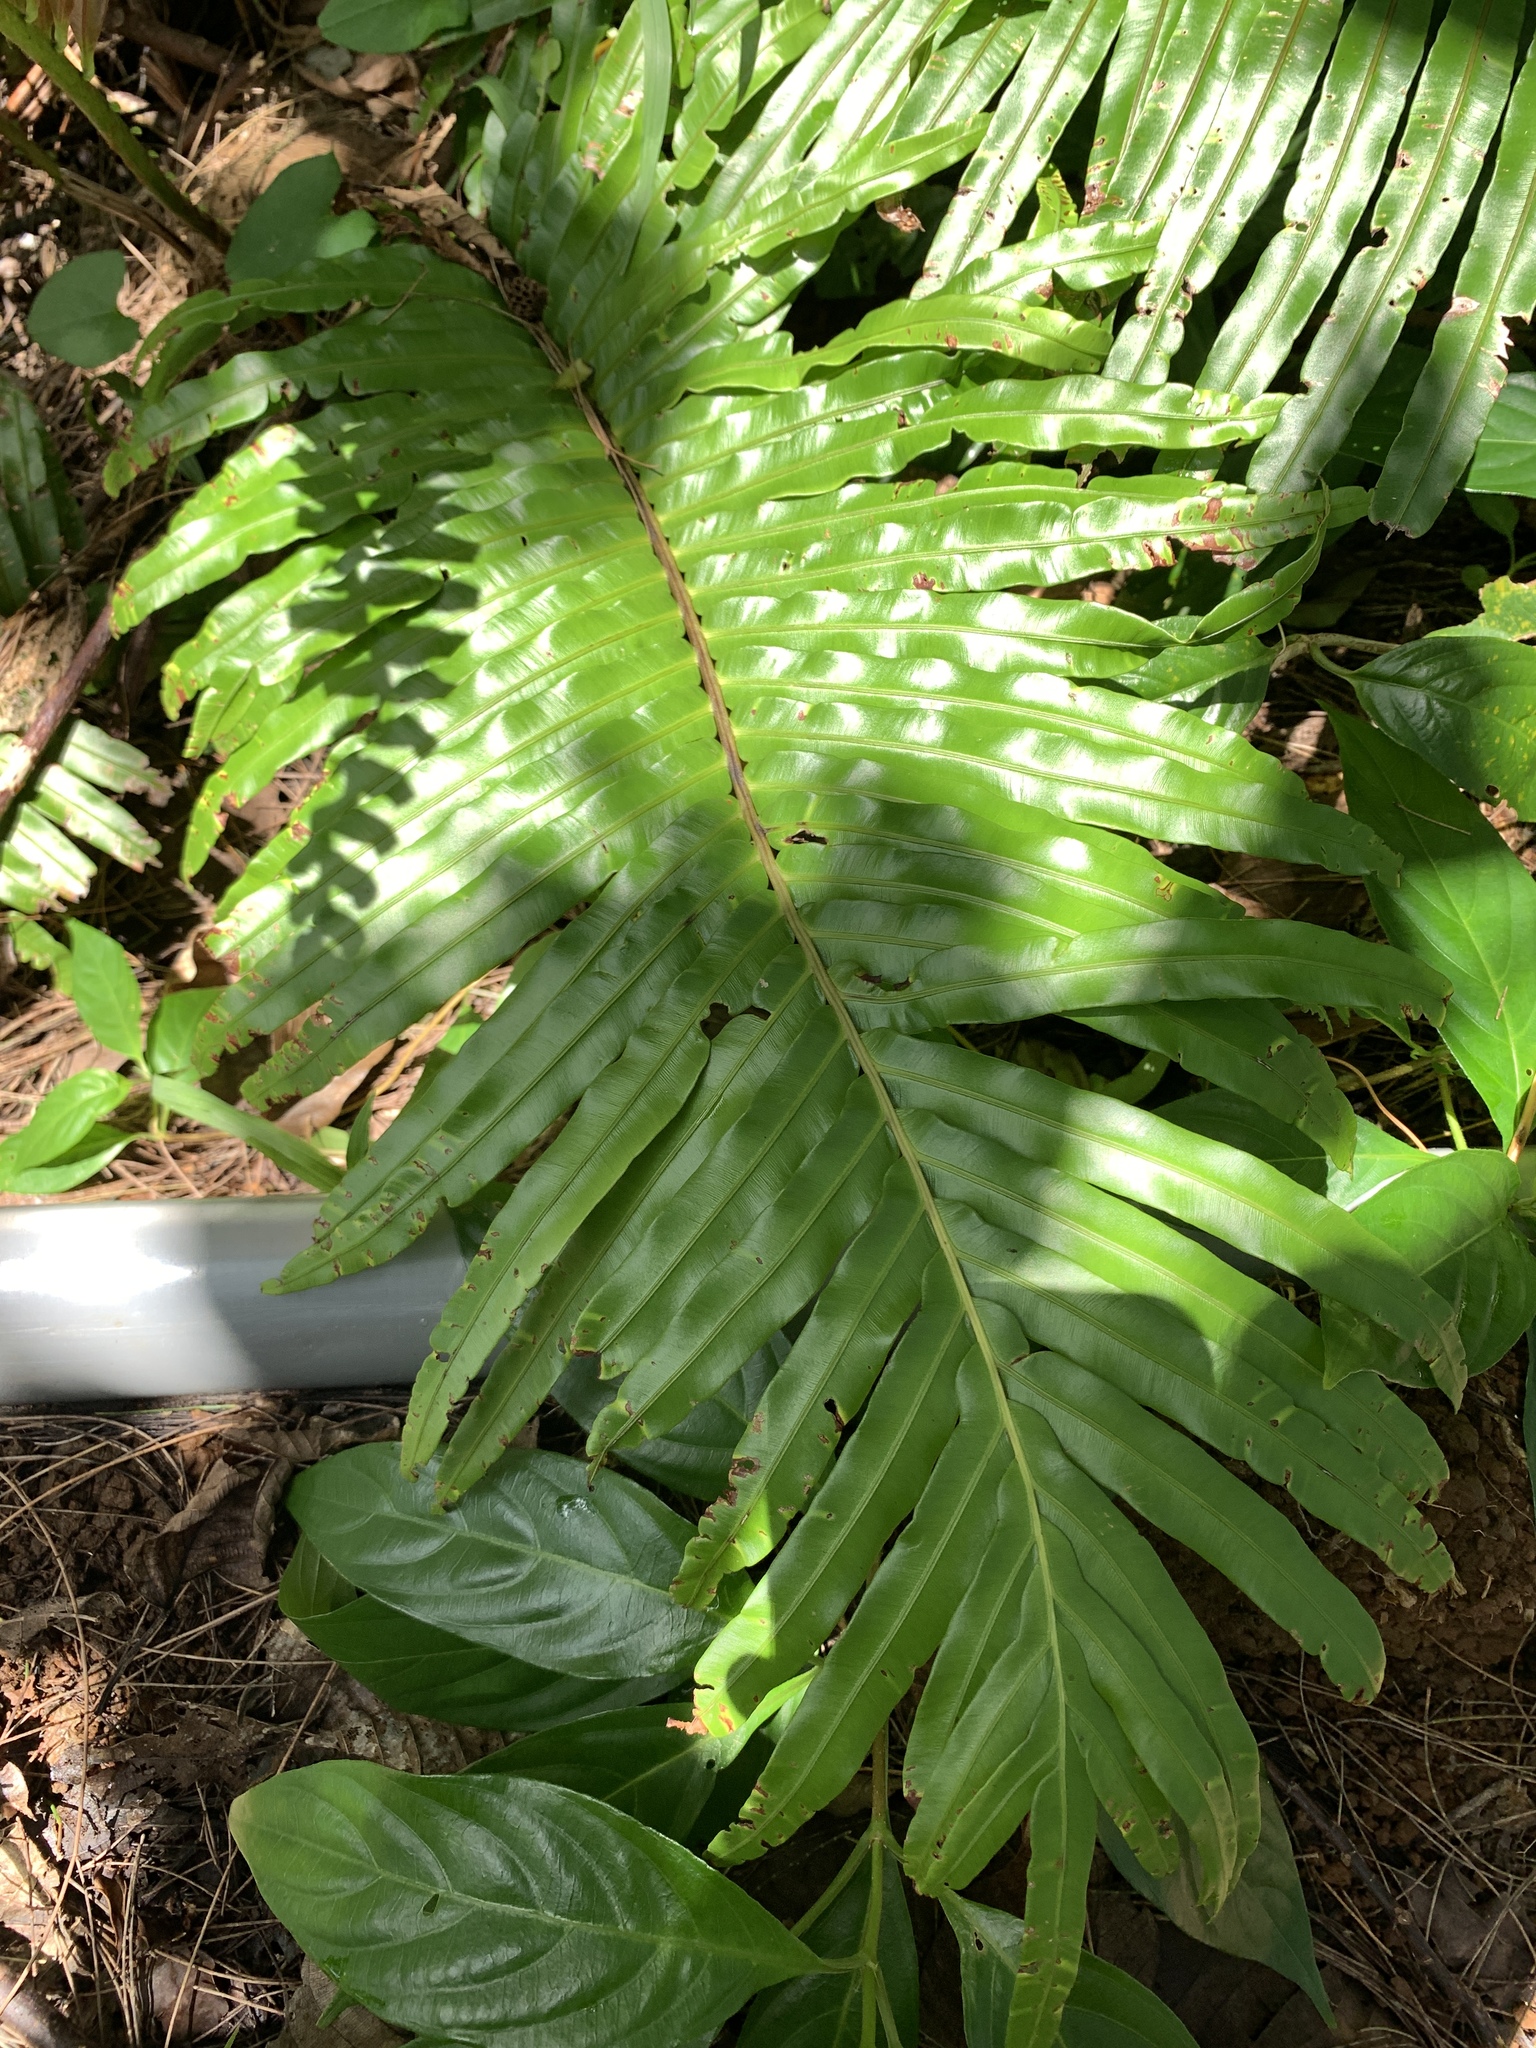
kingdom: Plantae
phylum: Tracheophyta
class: Polypodiopsida
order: Polypodiales
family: Blechnaceae
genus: Blechnopsis
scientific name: Blechnopsis orientalis
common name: Oriental blechnum
